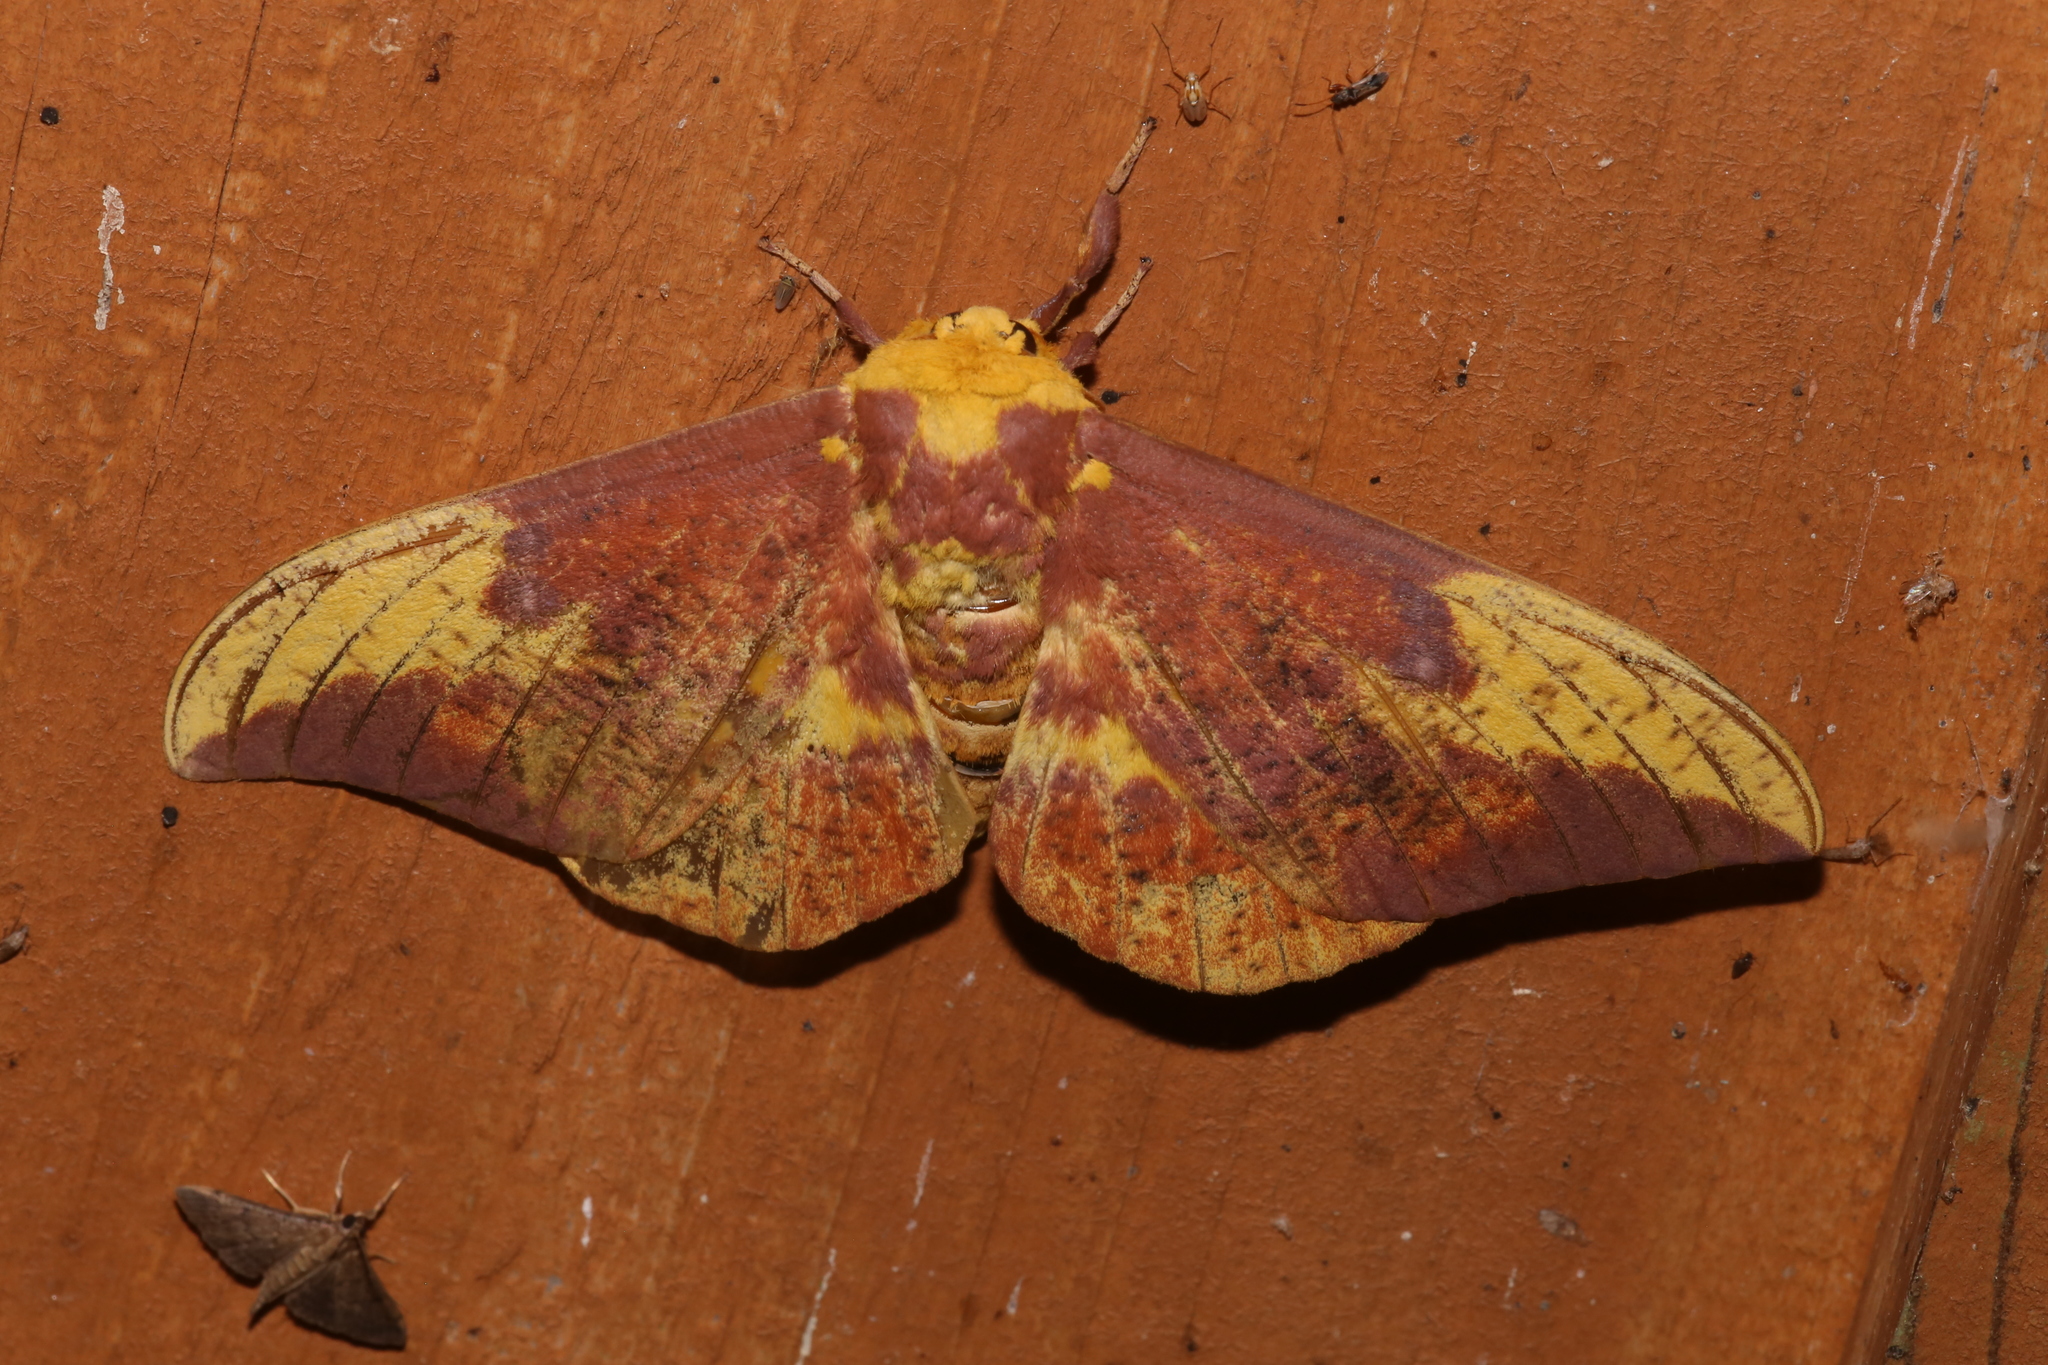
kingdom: Animalia
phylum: Arthropoda
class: Insecta
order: Lepidoptera
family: Saturniidae
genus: Eacles
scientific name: Eacles imperialis
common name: Imperial moth
